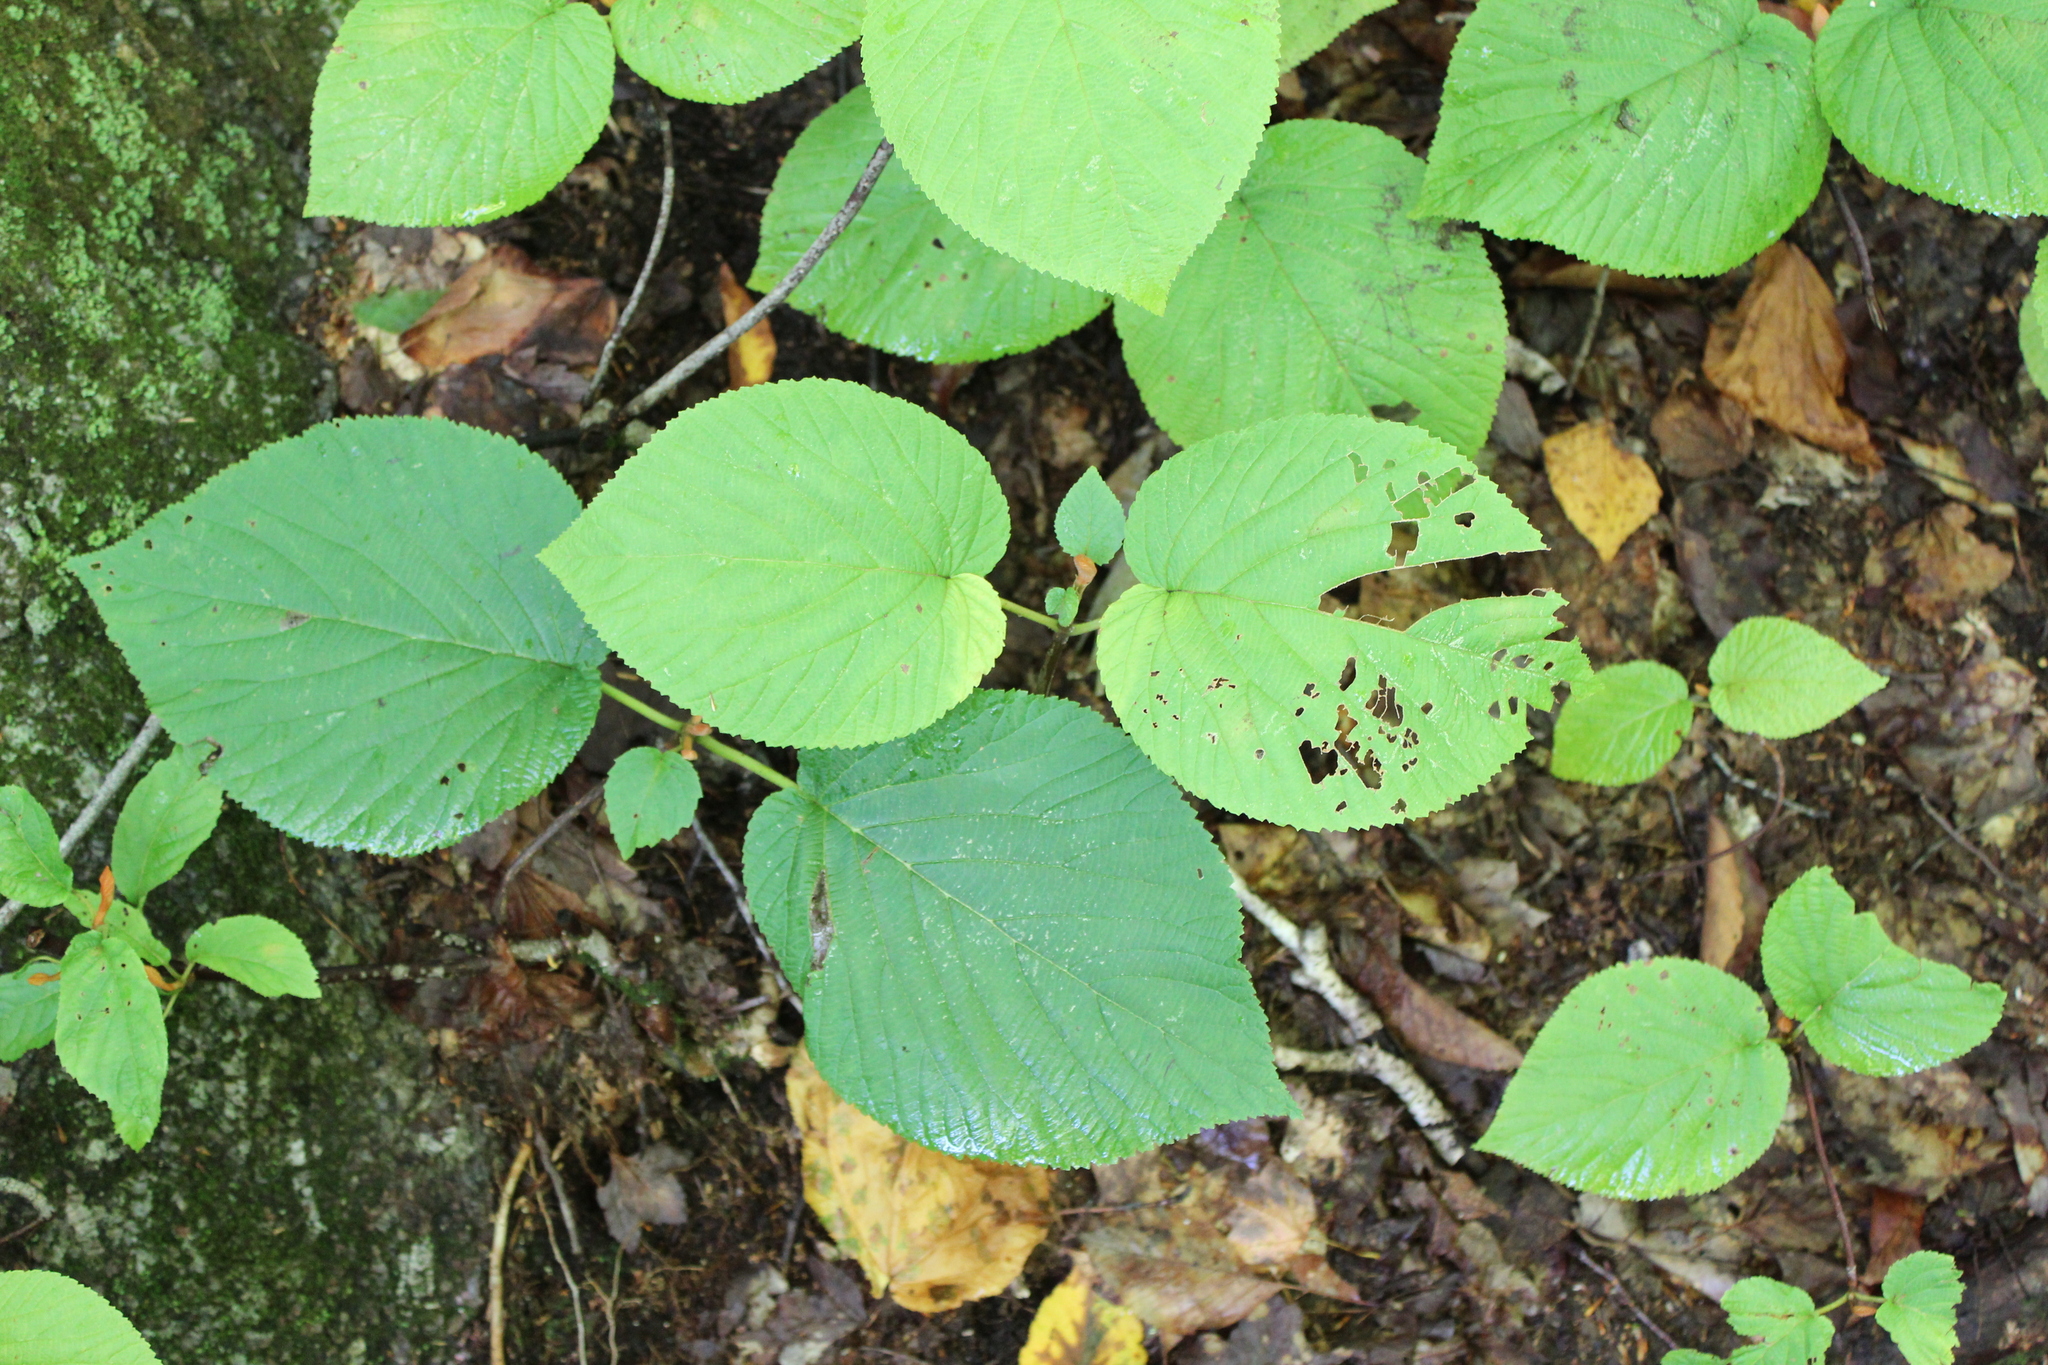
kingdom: Plantae
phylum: Tracheophyta
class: Magnoliopsida
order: Dipsacales
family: Viburnaceae
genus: Viburnum
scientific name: Viburnum lantanoides
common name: Hobblebush
